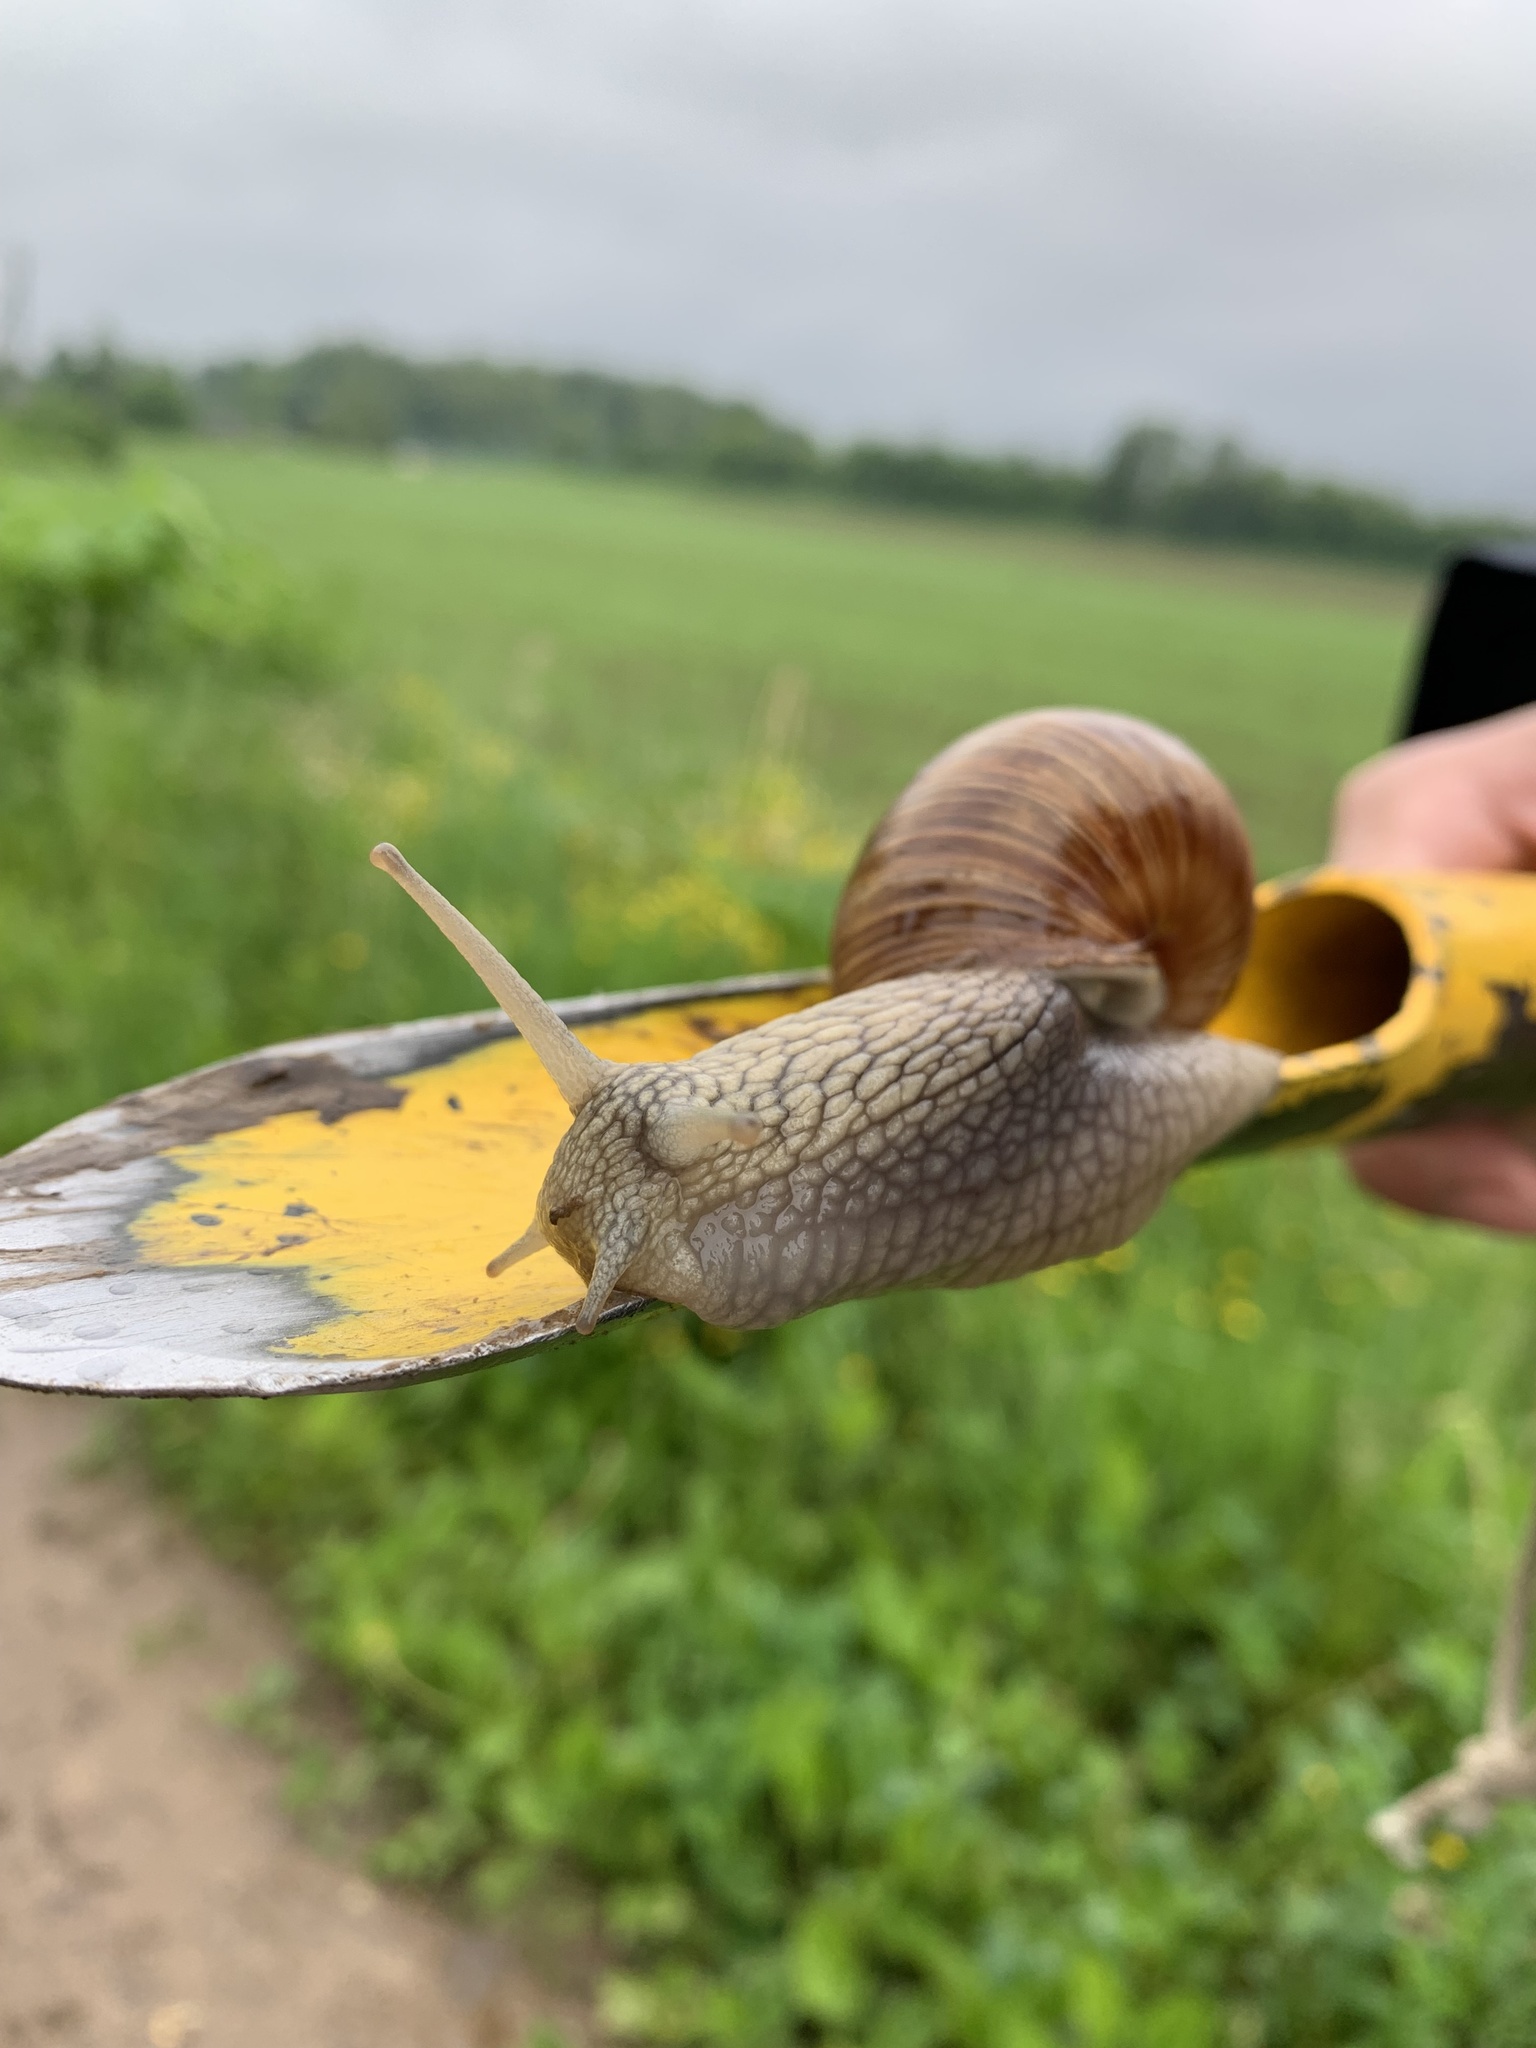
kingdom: Animalia
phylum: Mollusca
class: Gastropoda
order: Stylommatophora
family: Helicidae
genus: Helix
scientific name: Helix pomatia
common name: Roman snail
